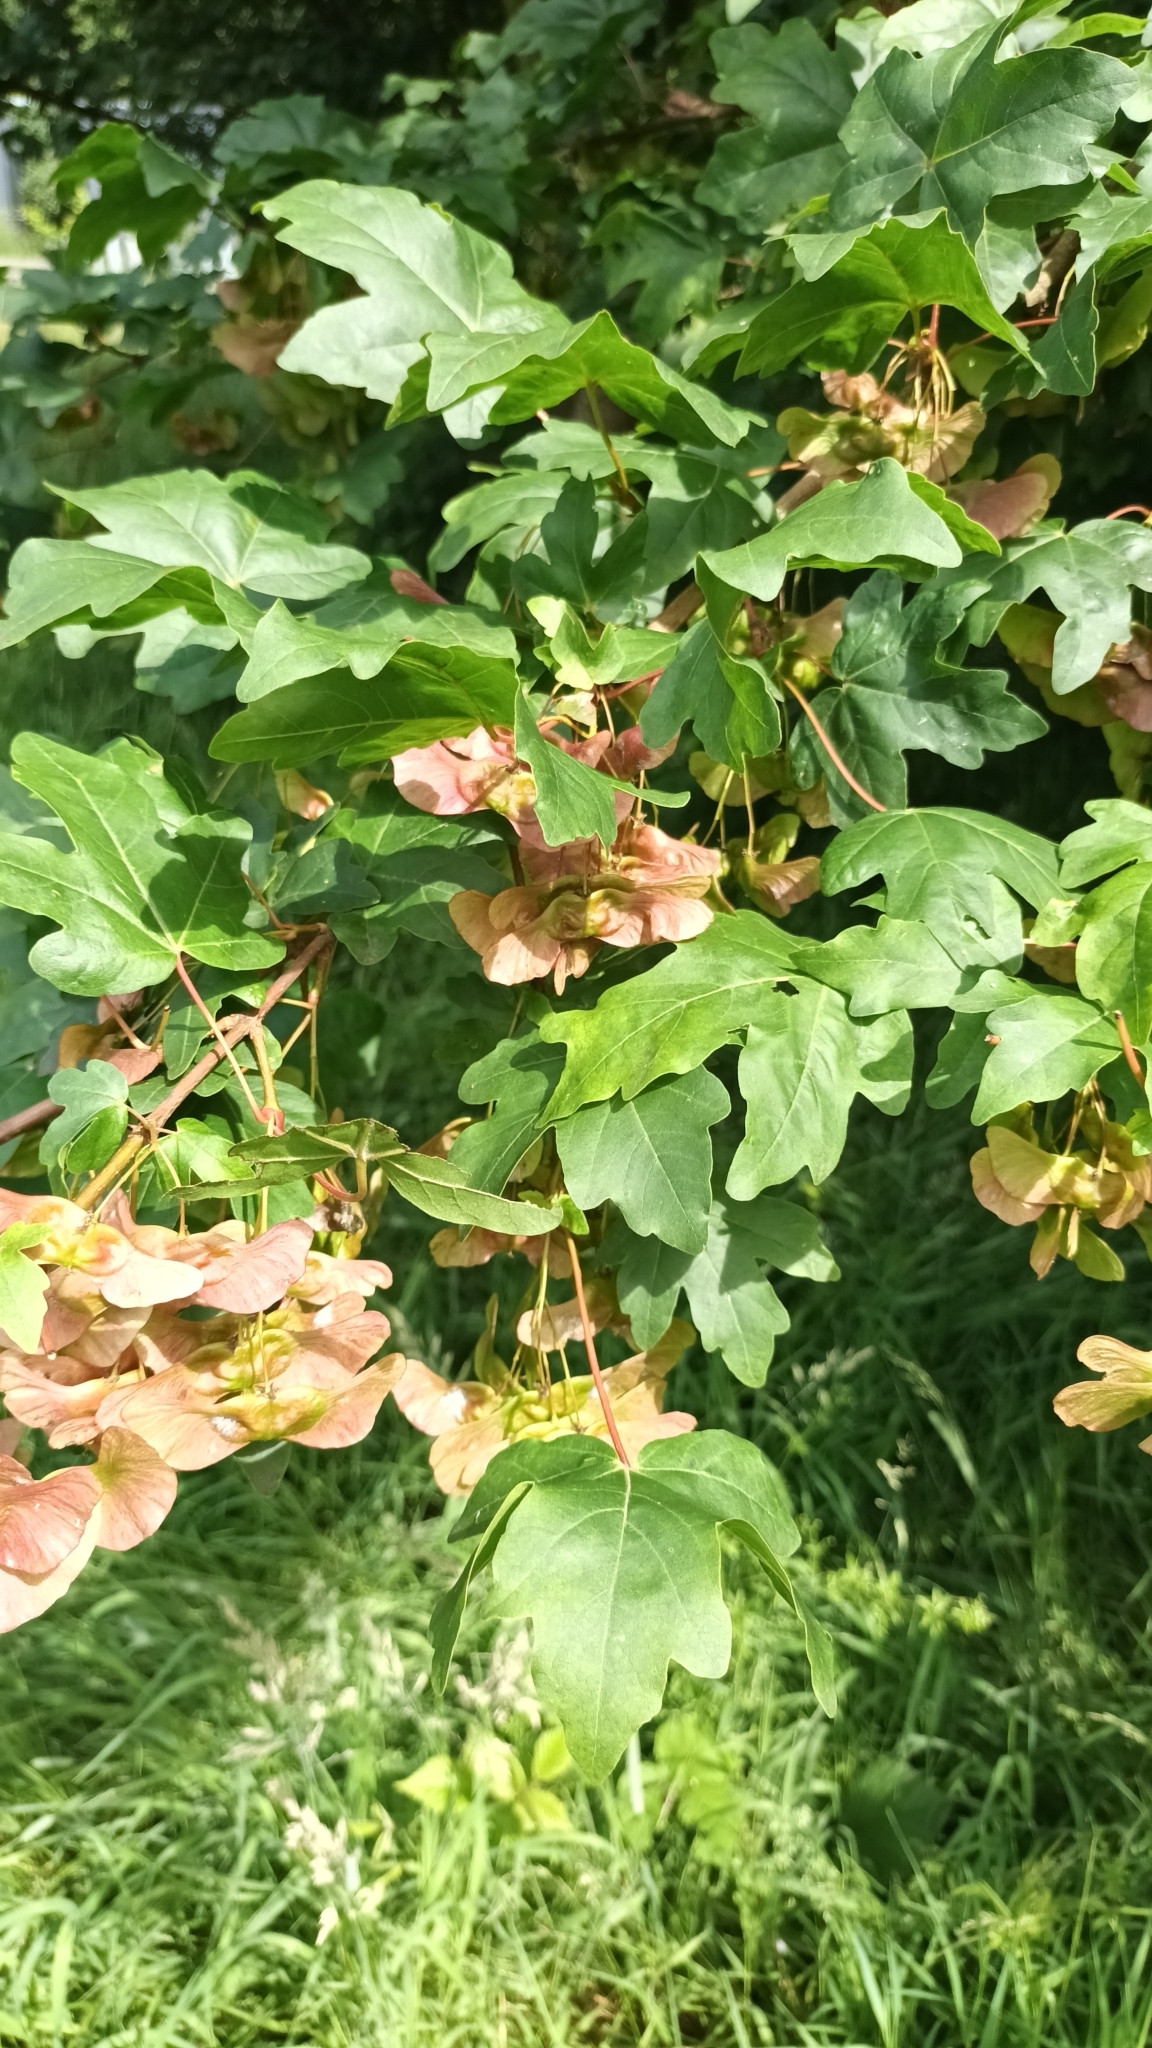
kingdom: Plantae
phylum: Tracheophyta
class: Magnoliopsida
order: Sapindales
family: Sapindaceae
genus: Acer
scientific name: Acer campestre
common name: Field maple
